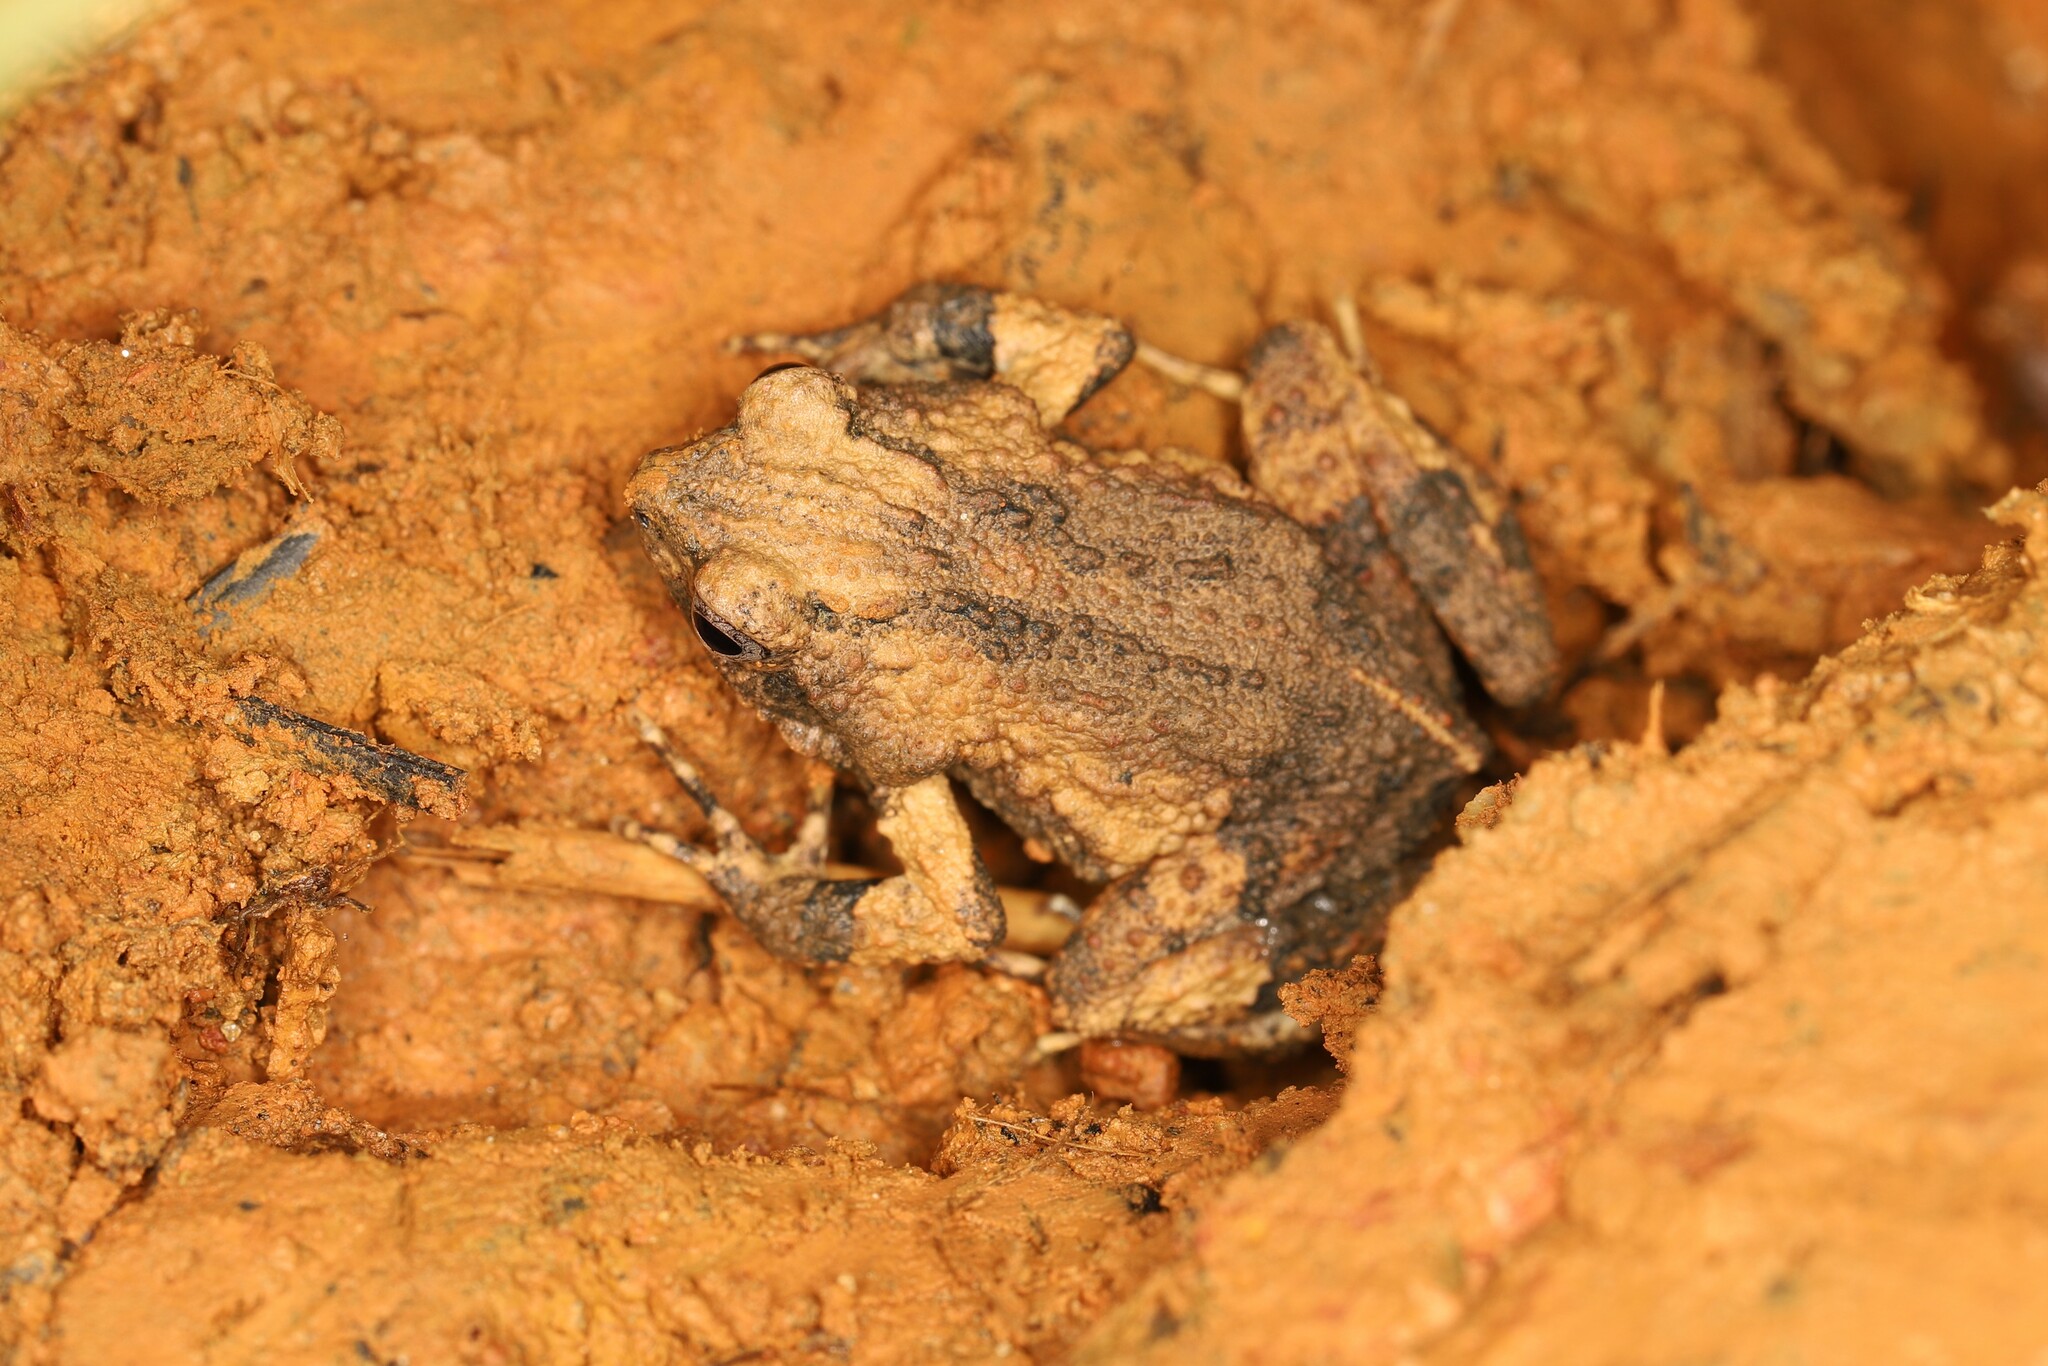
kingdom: Animalia
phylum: Chordata
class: Amphibia
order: Anura
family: Leptodactylidae
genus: Engystomops
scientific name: Engystomops pustulosus
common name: Tungara frog
